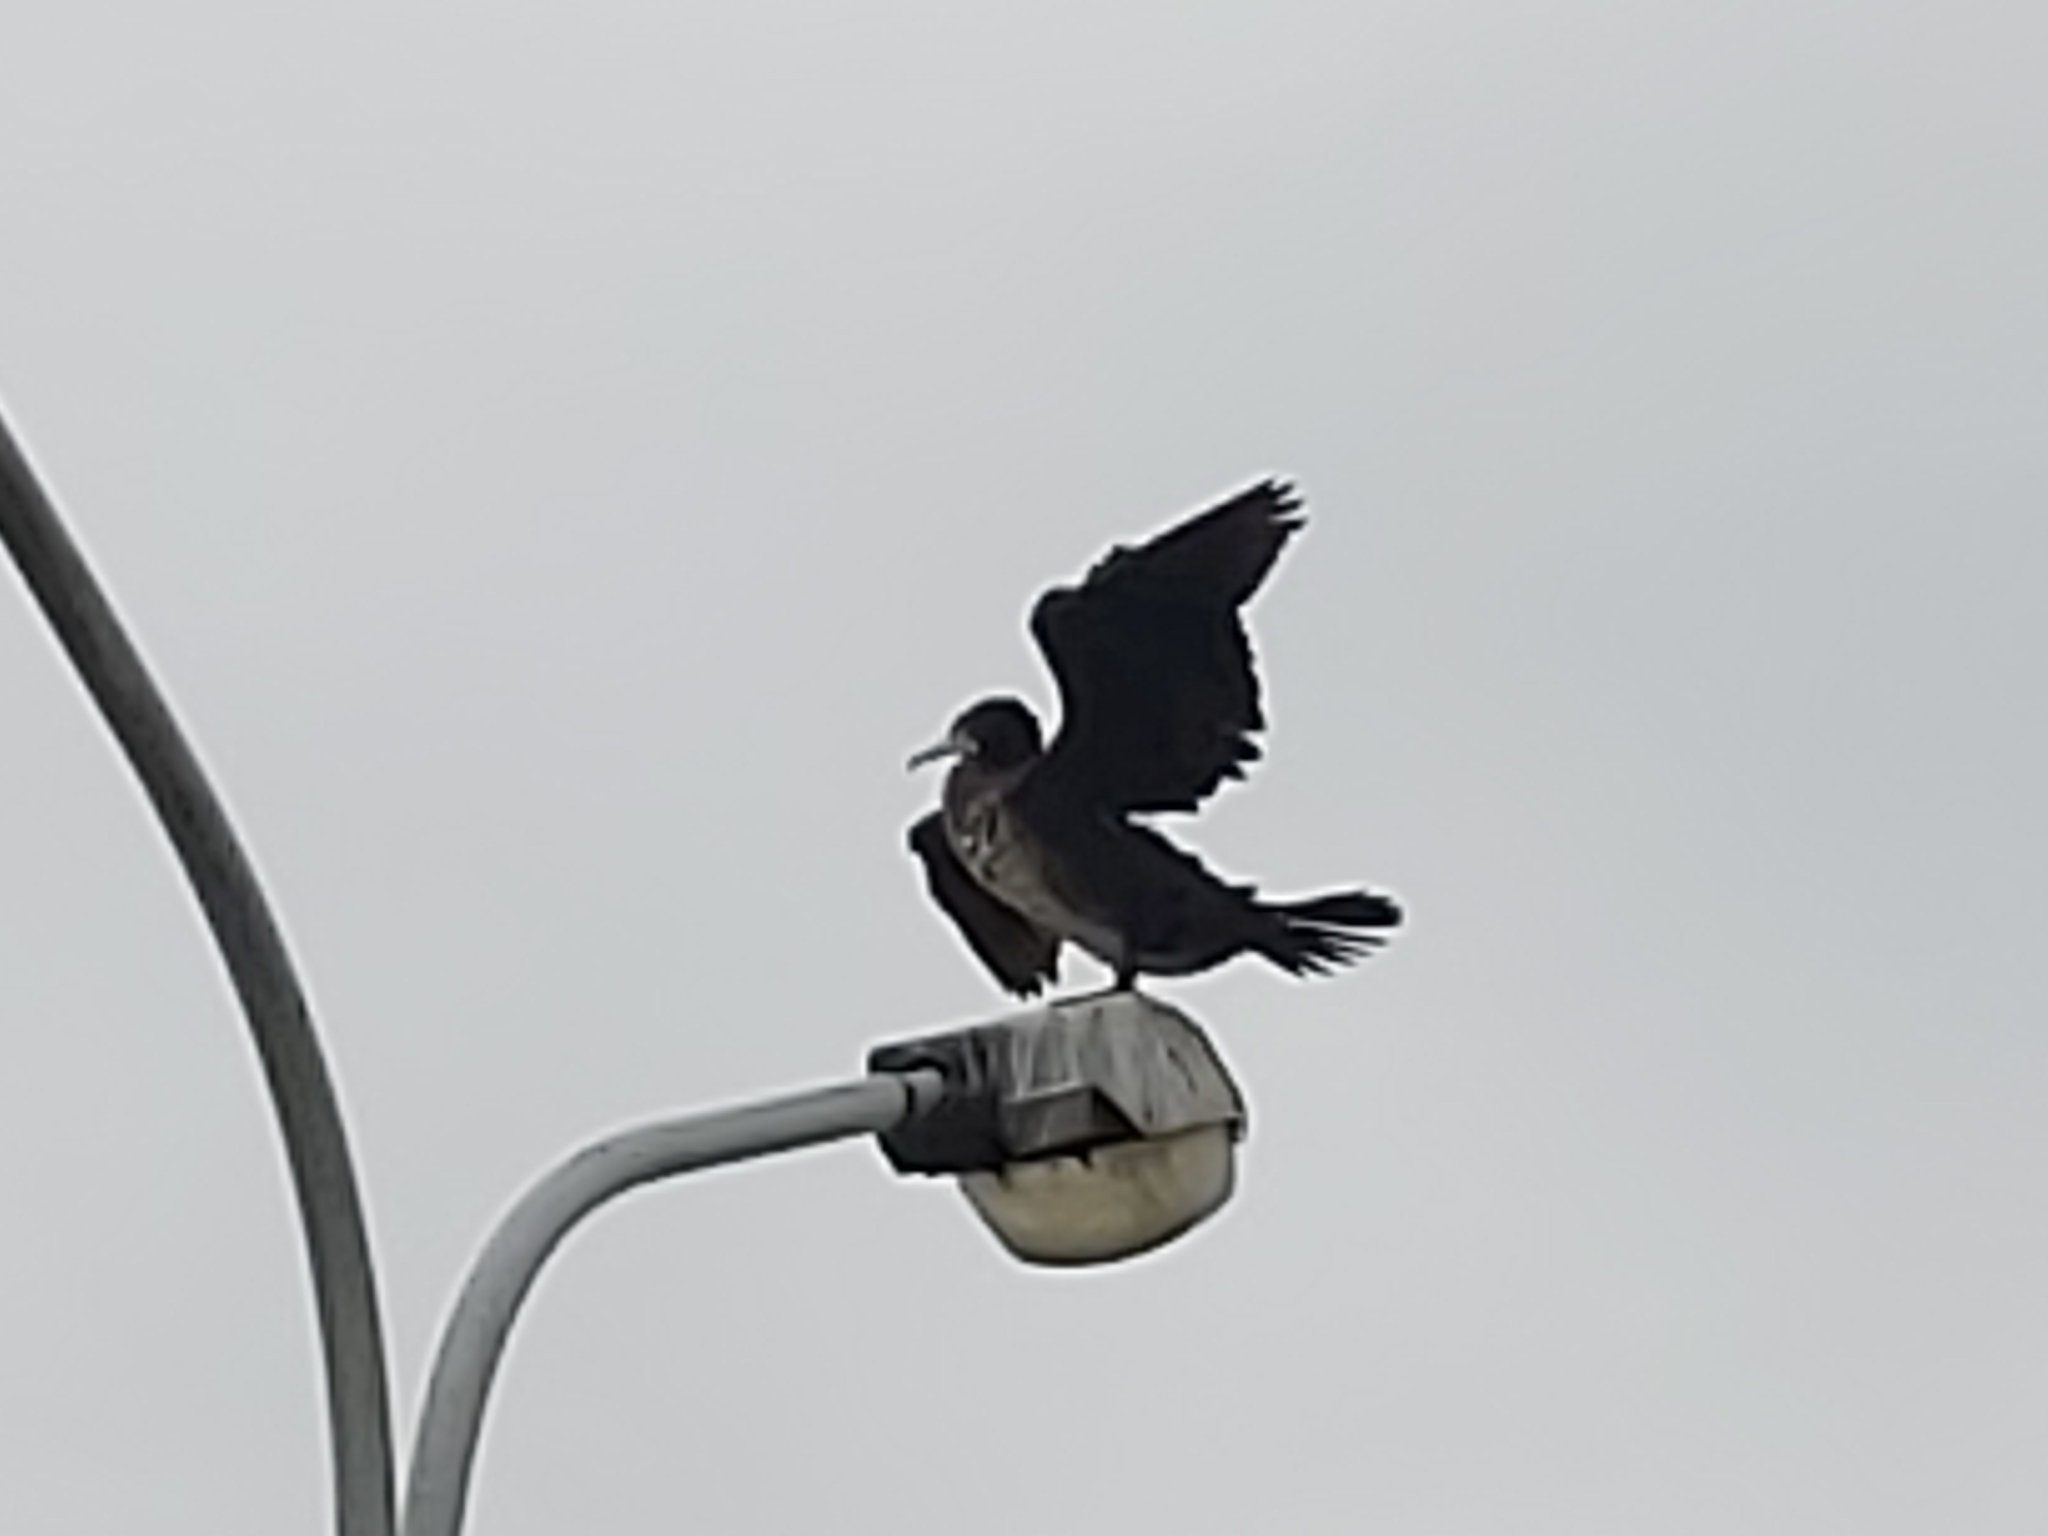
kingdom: Animalia
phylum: Chordata
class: Aves
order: Suliformes
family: Phalacrocoracidae
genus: Phalacrocorax
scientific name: Phalacrocorax carbo
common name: Great cormorant
